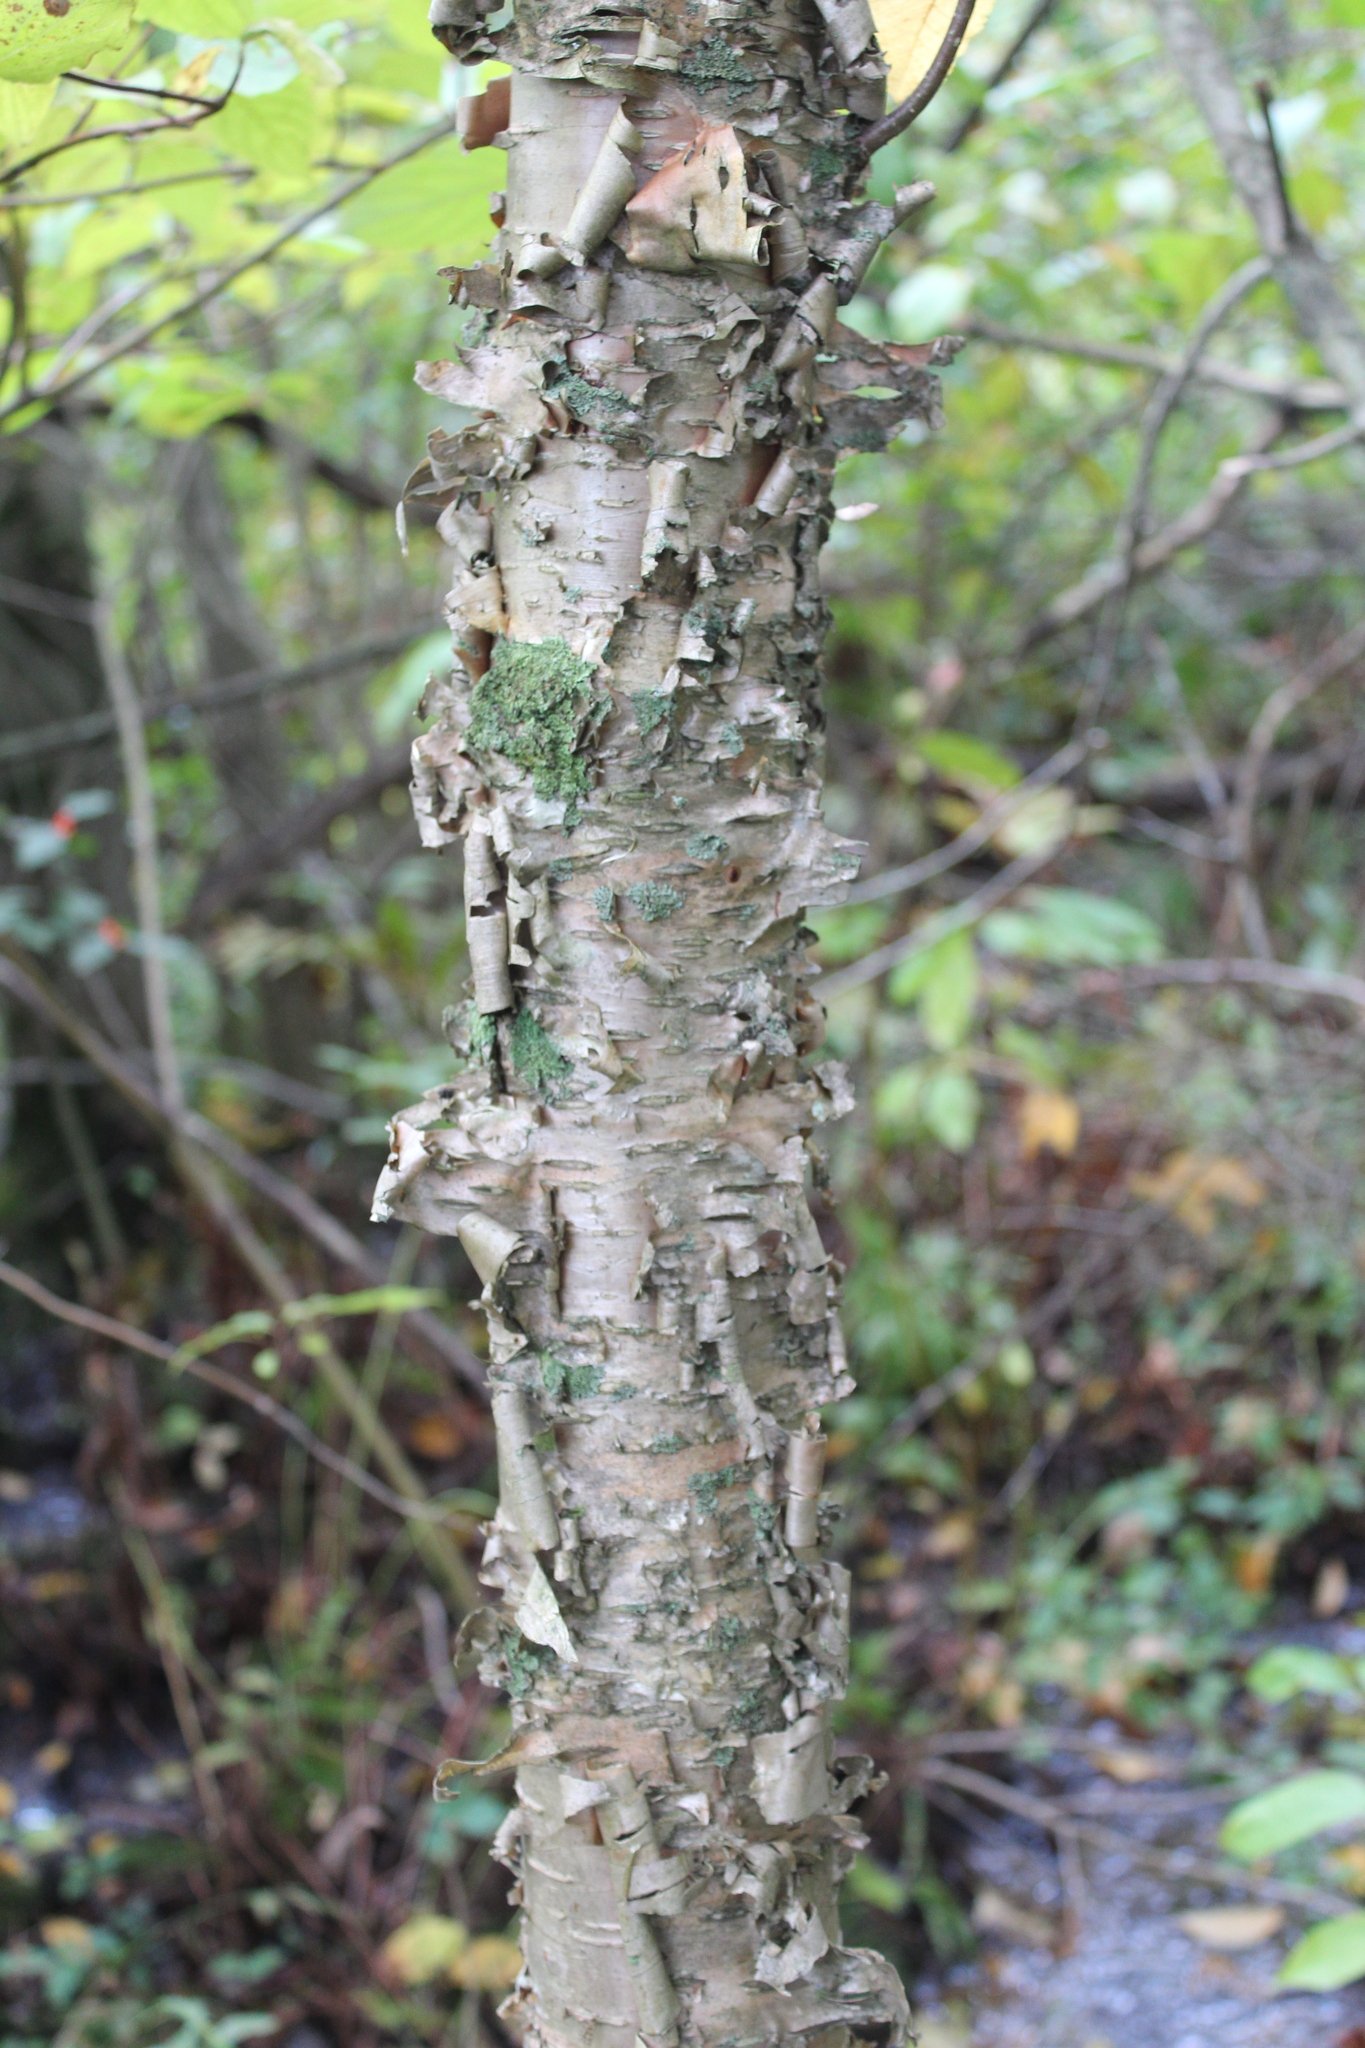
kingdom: Plantae
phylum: Tracheophyta
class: Magnoliopsida
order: Fagales
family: Betulaceae
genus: Betula
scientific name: Betula alleghaniensis
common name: Yellow birch
